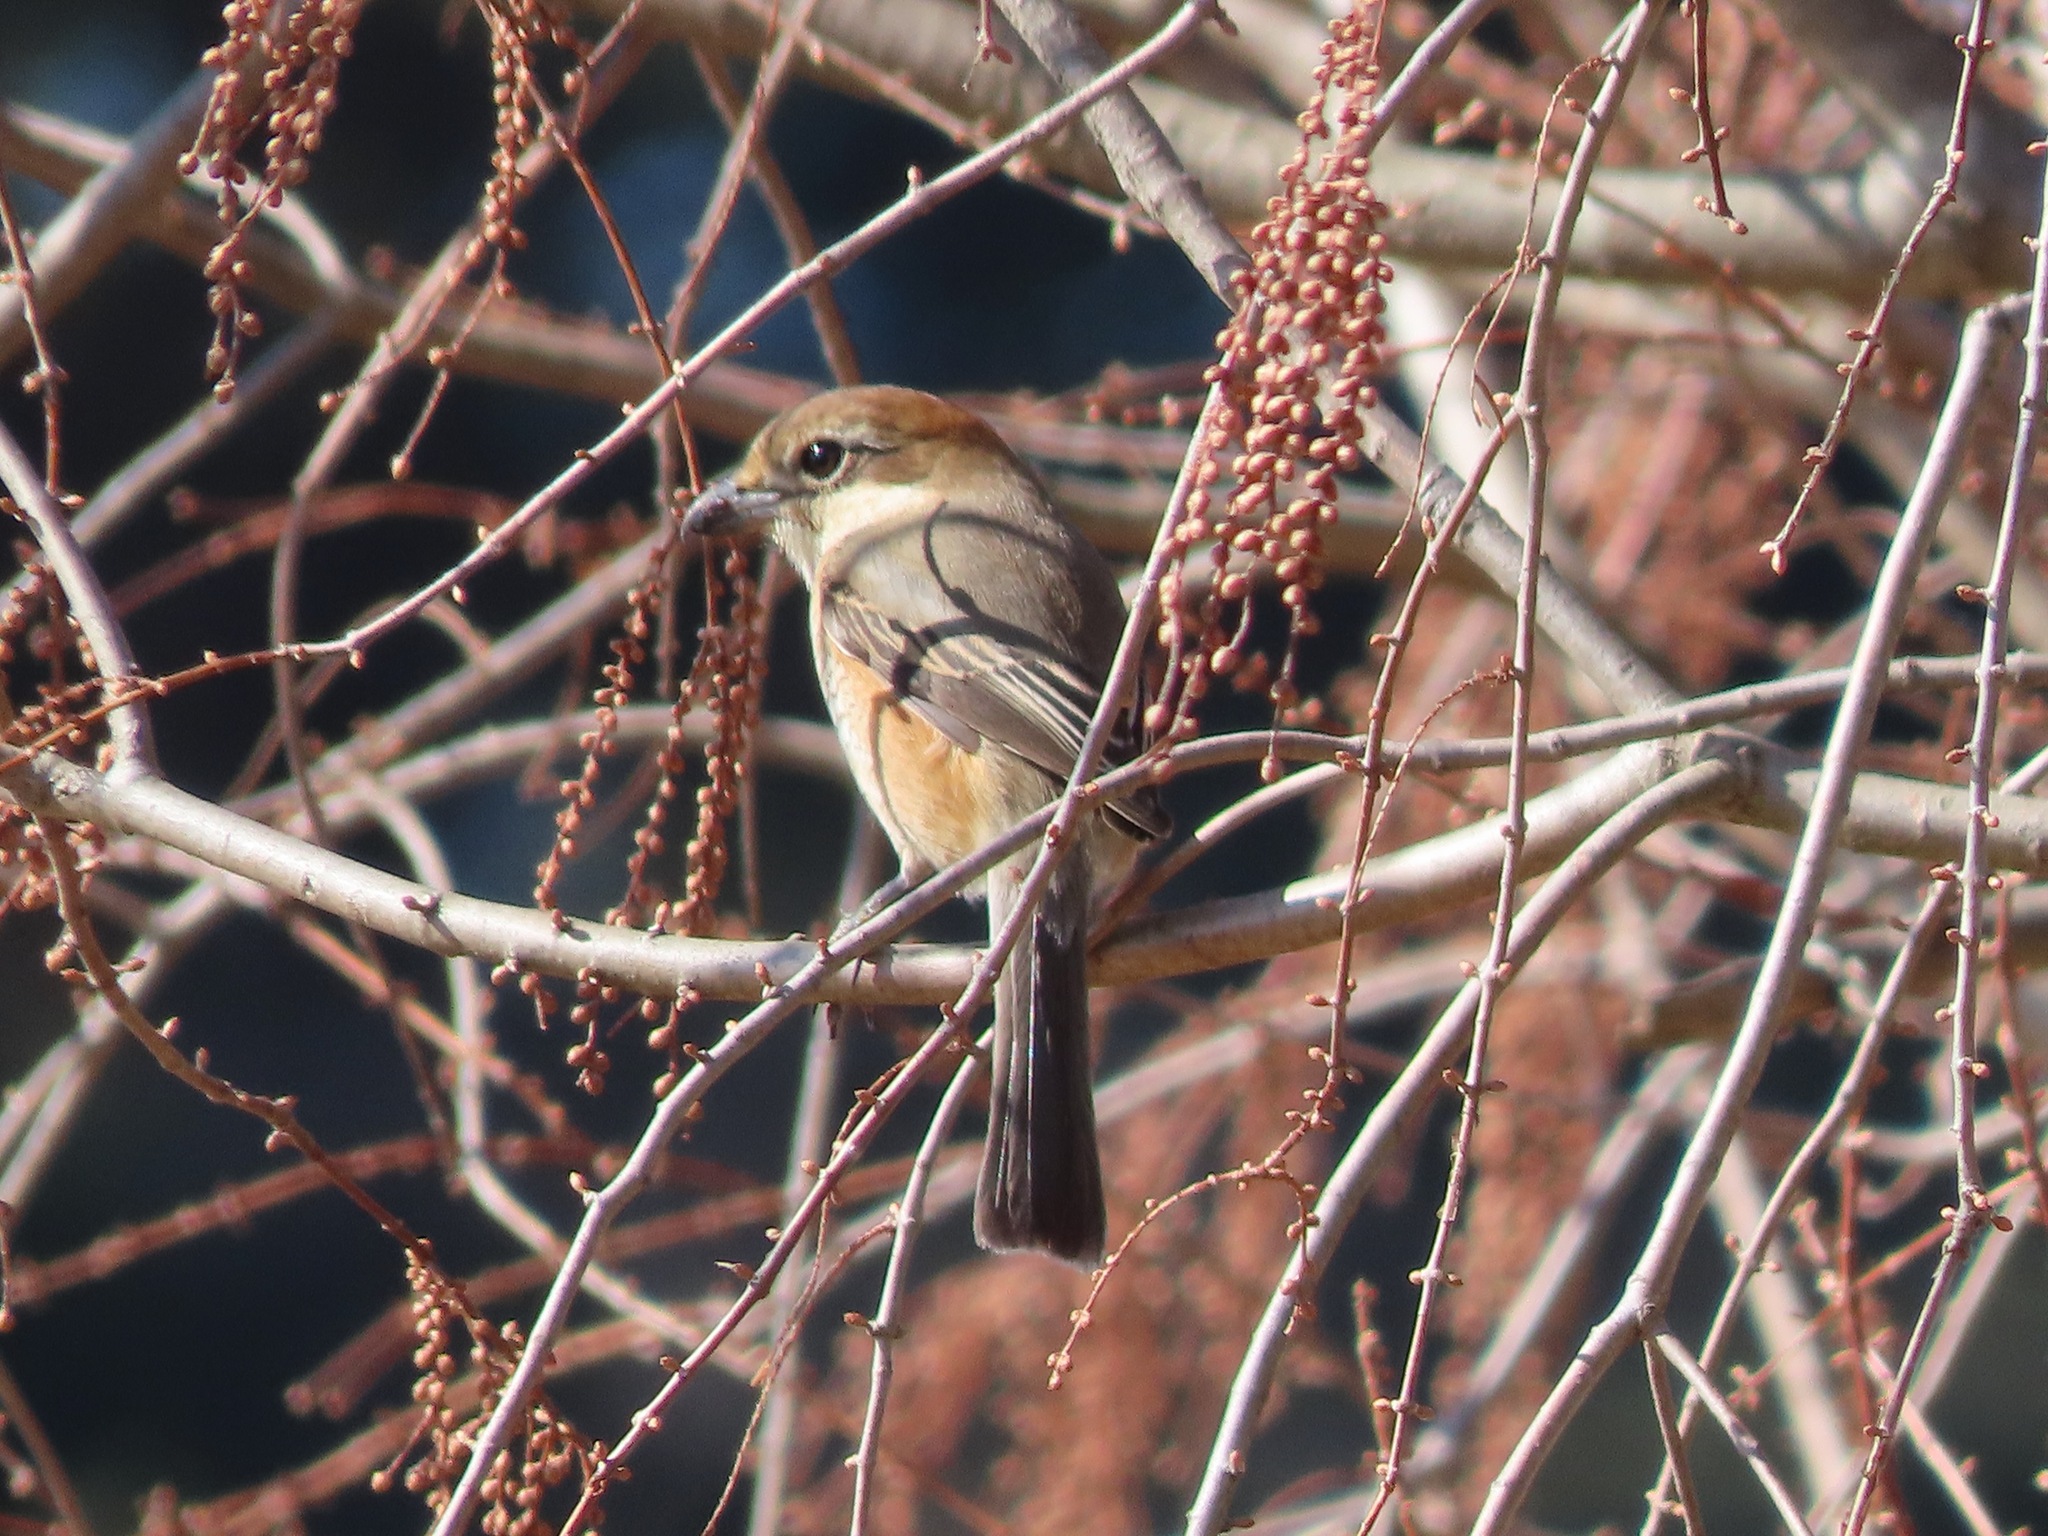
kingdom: Animalia
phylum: Chordata
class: Aves
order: Passeriformes
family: Laniidae
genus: Lanius
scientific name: Lanius bucephalus
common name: Bull-headed shrike
